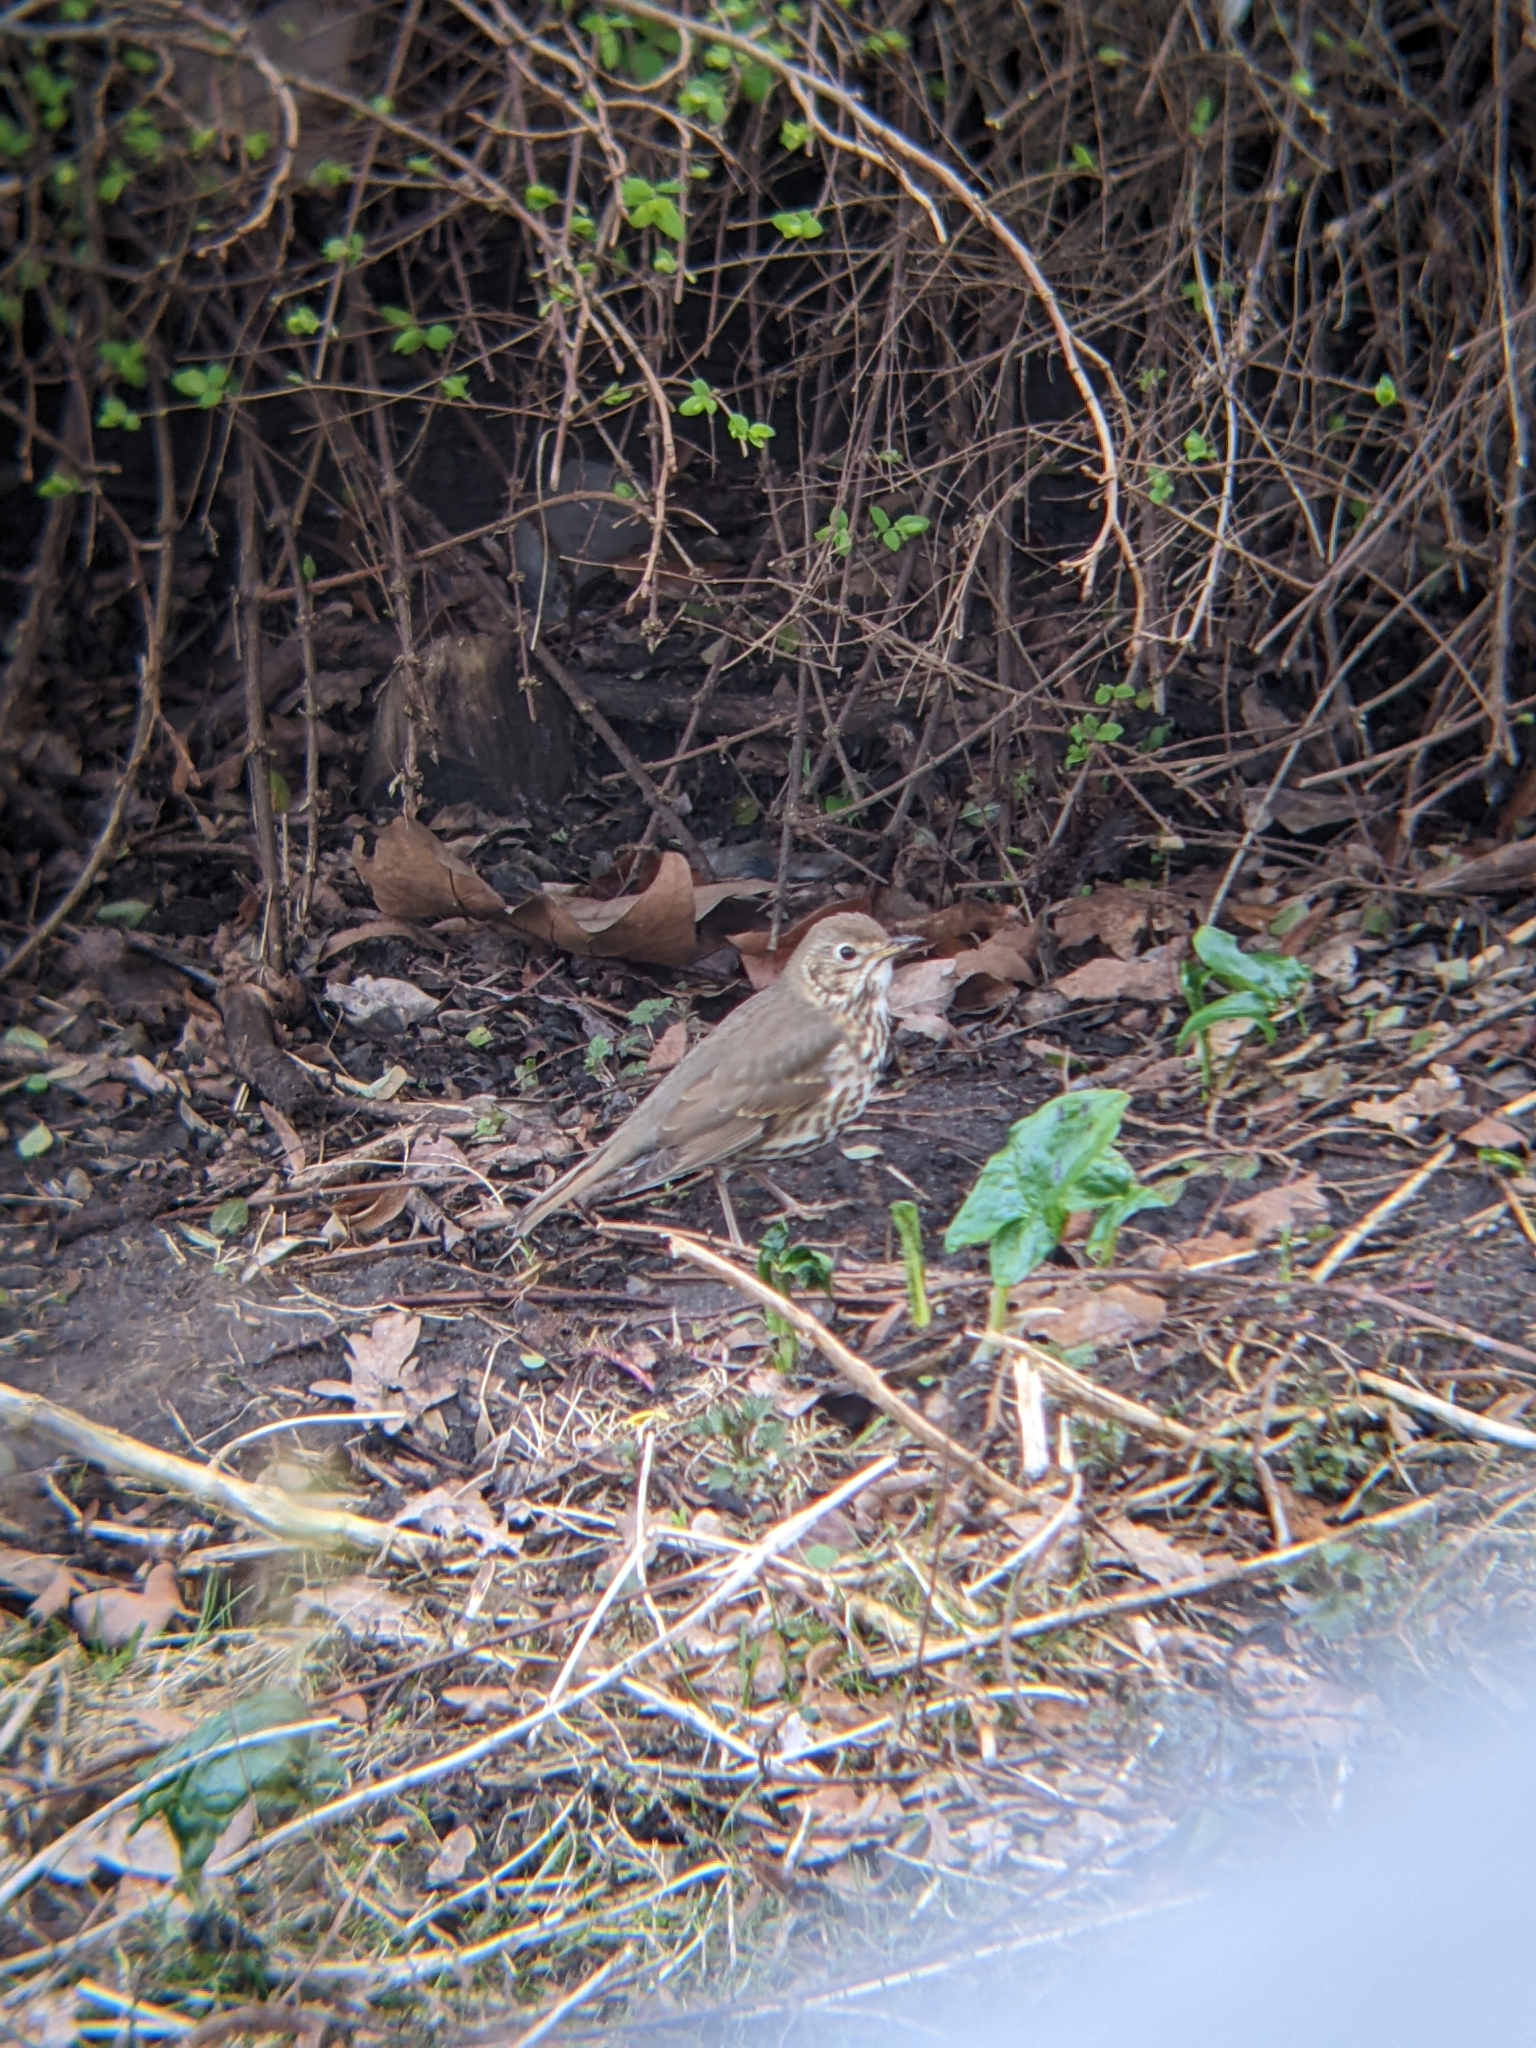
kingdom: Animalia
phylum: Chordata
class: Aves
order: Passeriformes
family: Turdidae
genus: Turdus
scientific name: Turdus philomelos
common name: Song thrush
